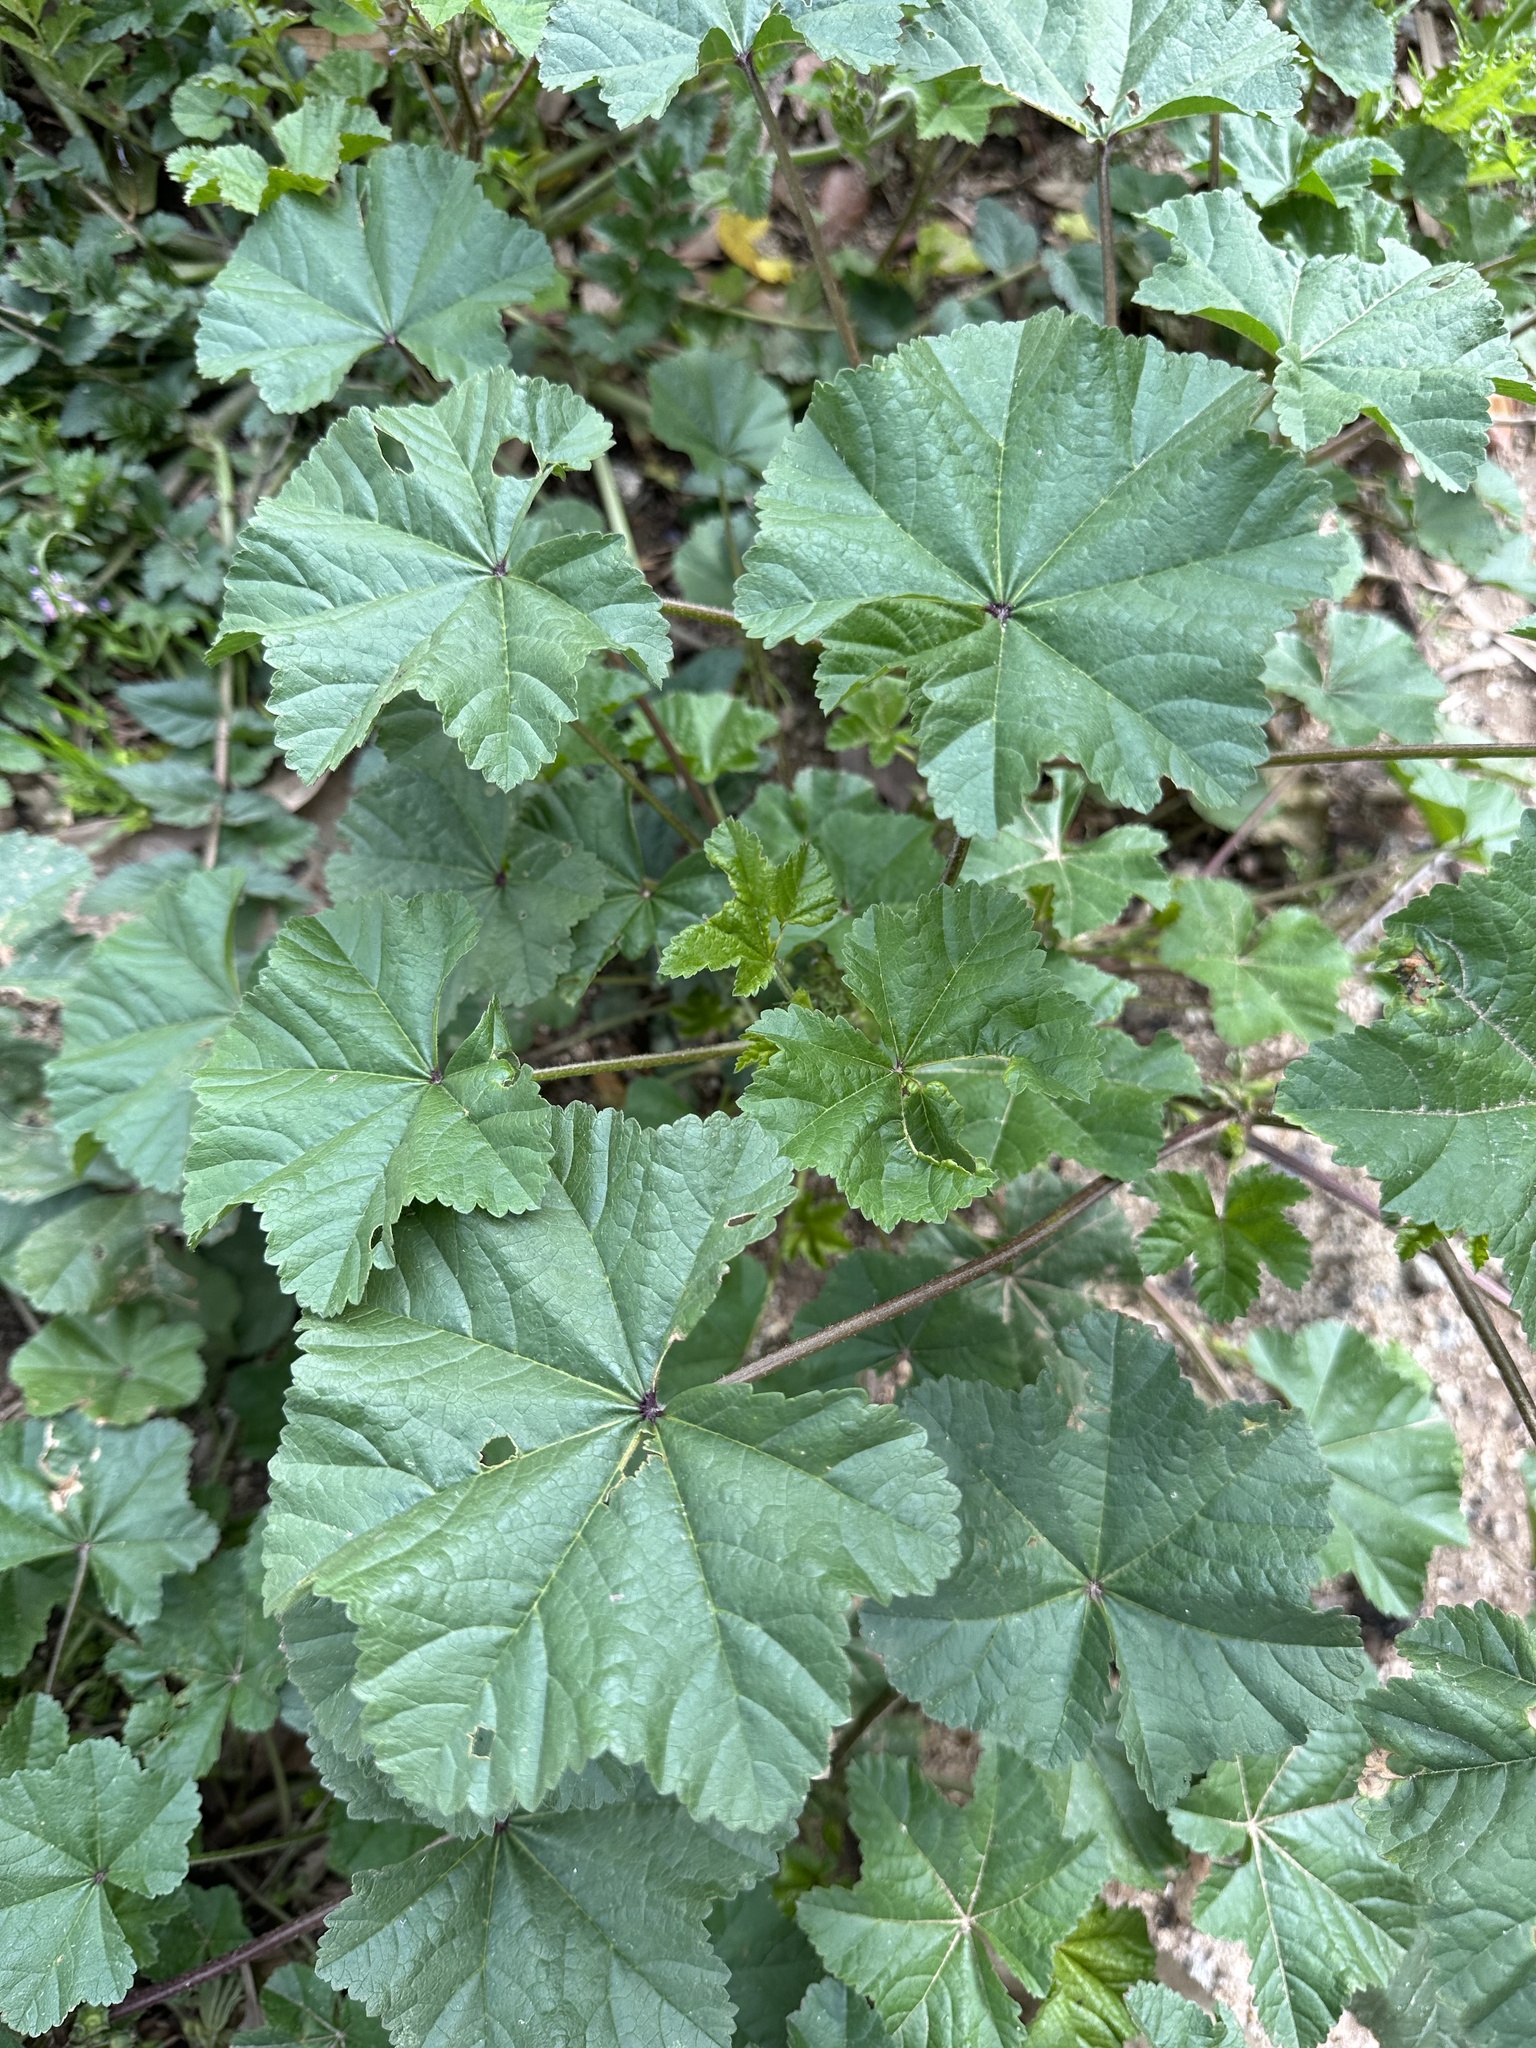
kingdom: Plantae
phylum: Tracheophyta
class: Magnoliopsida
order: Malvales
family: Malvaceae
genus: Malva
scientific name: Malva
